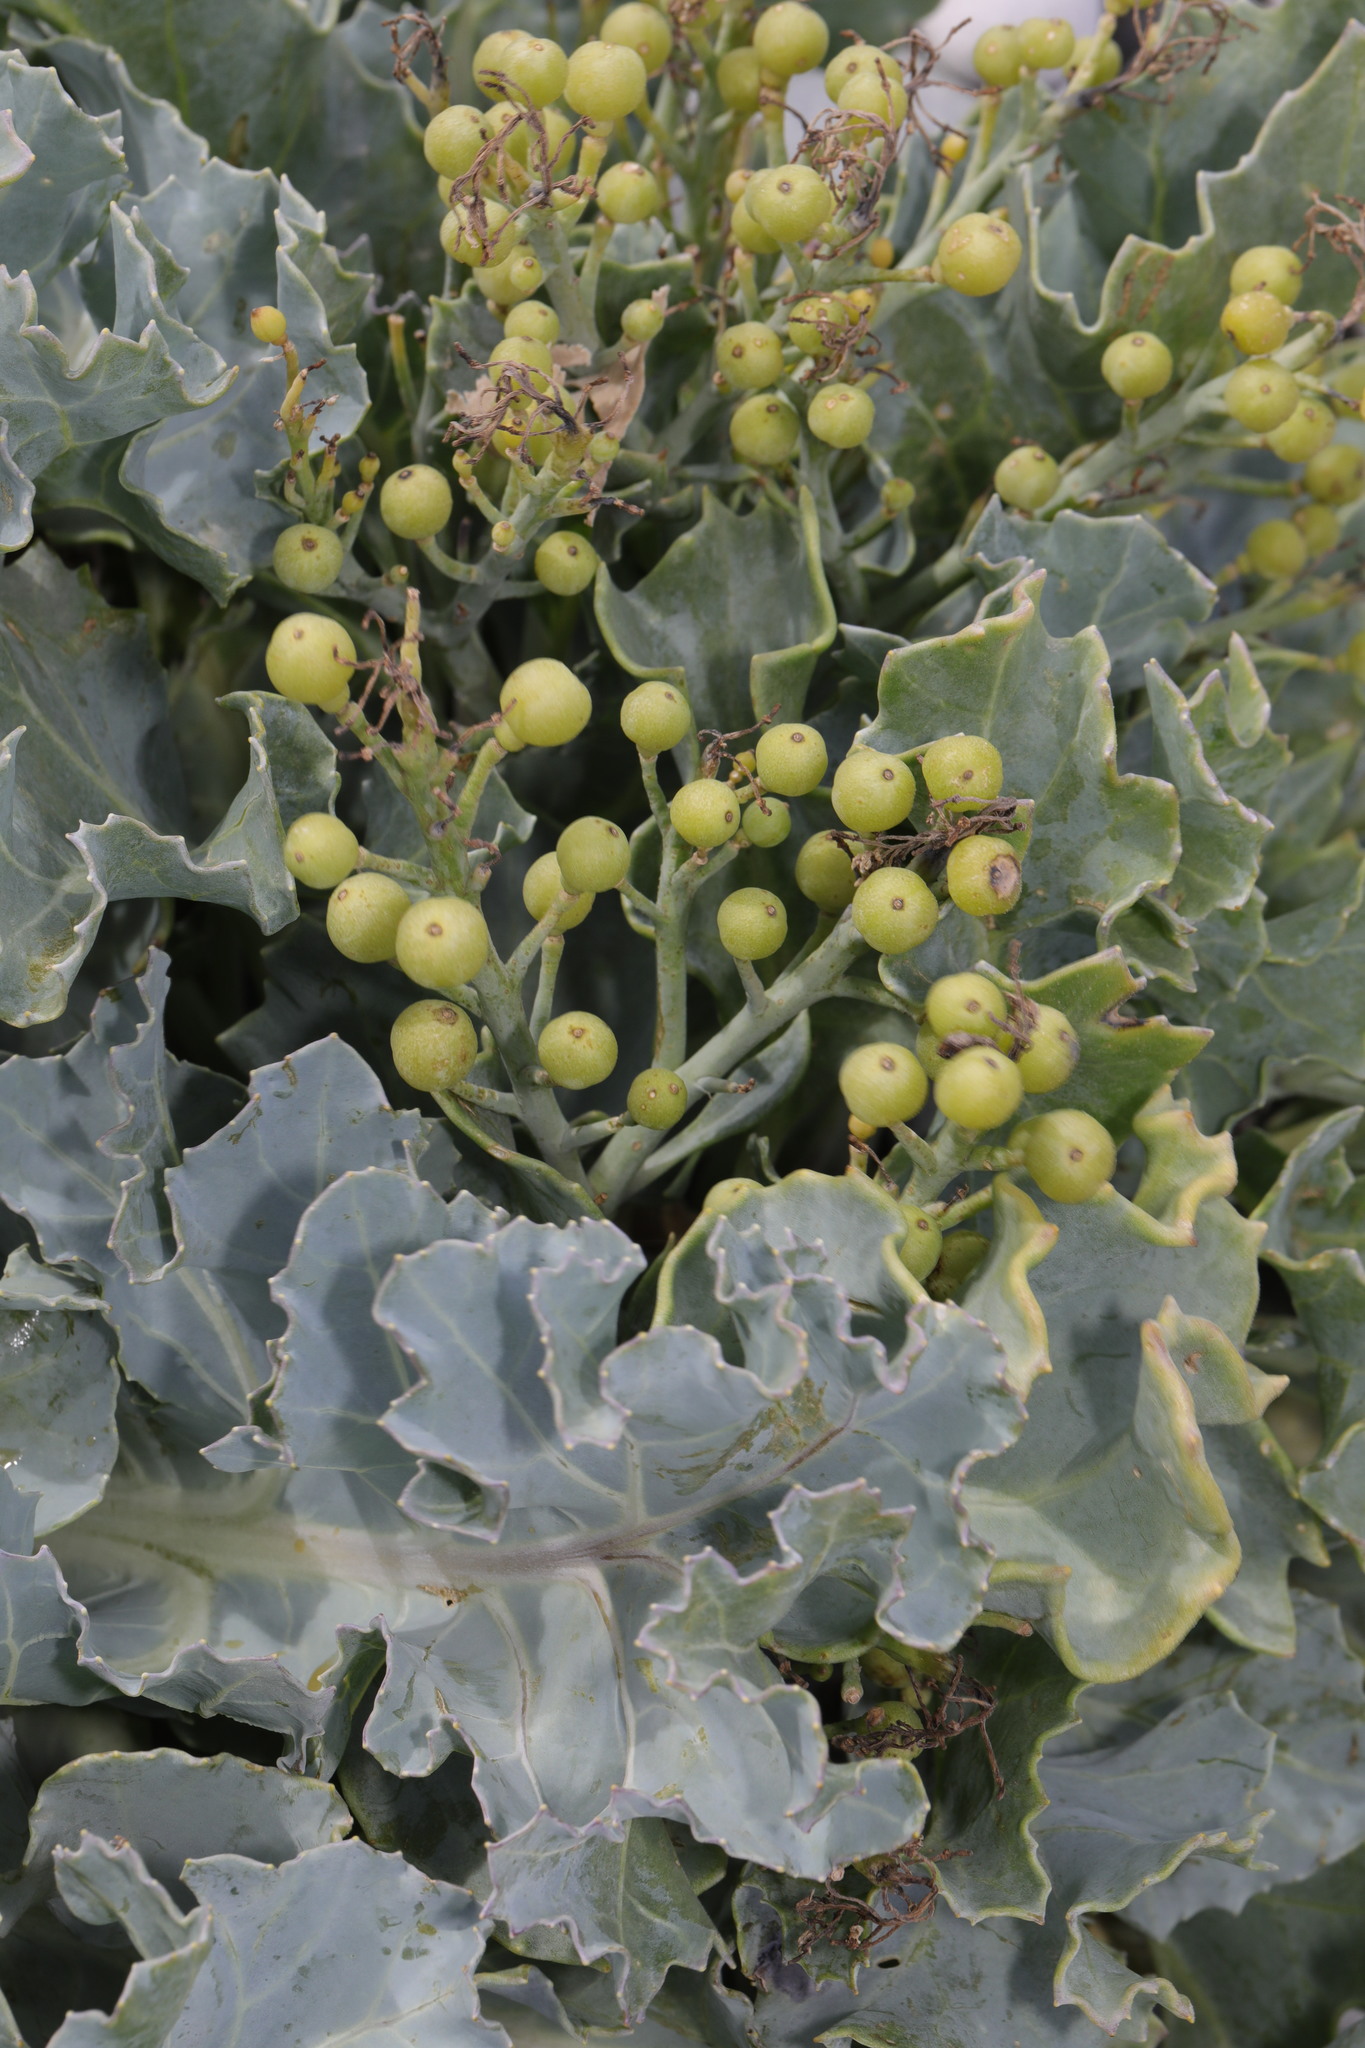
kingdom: Plantae
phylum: Tracheophyta
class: Magnoliopsida
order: Brassicales
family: Brassicaceae
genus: Crambe
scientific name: Crambe maritima
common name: Sea-kale
